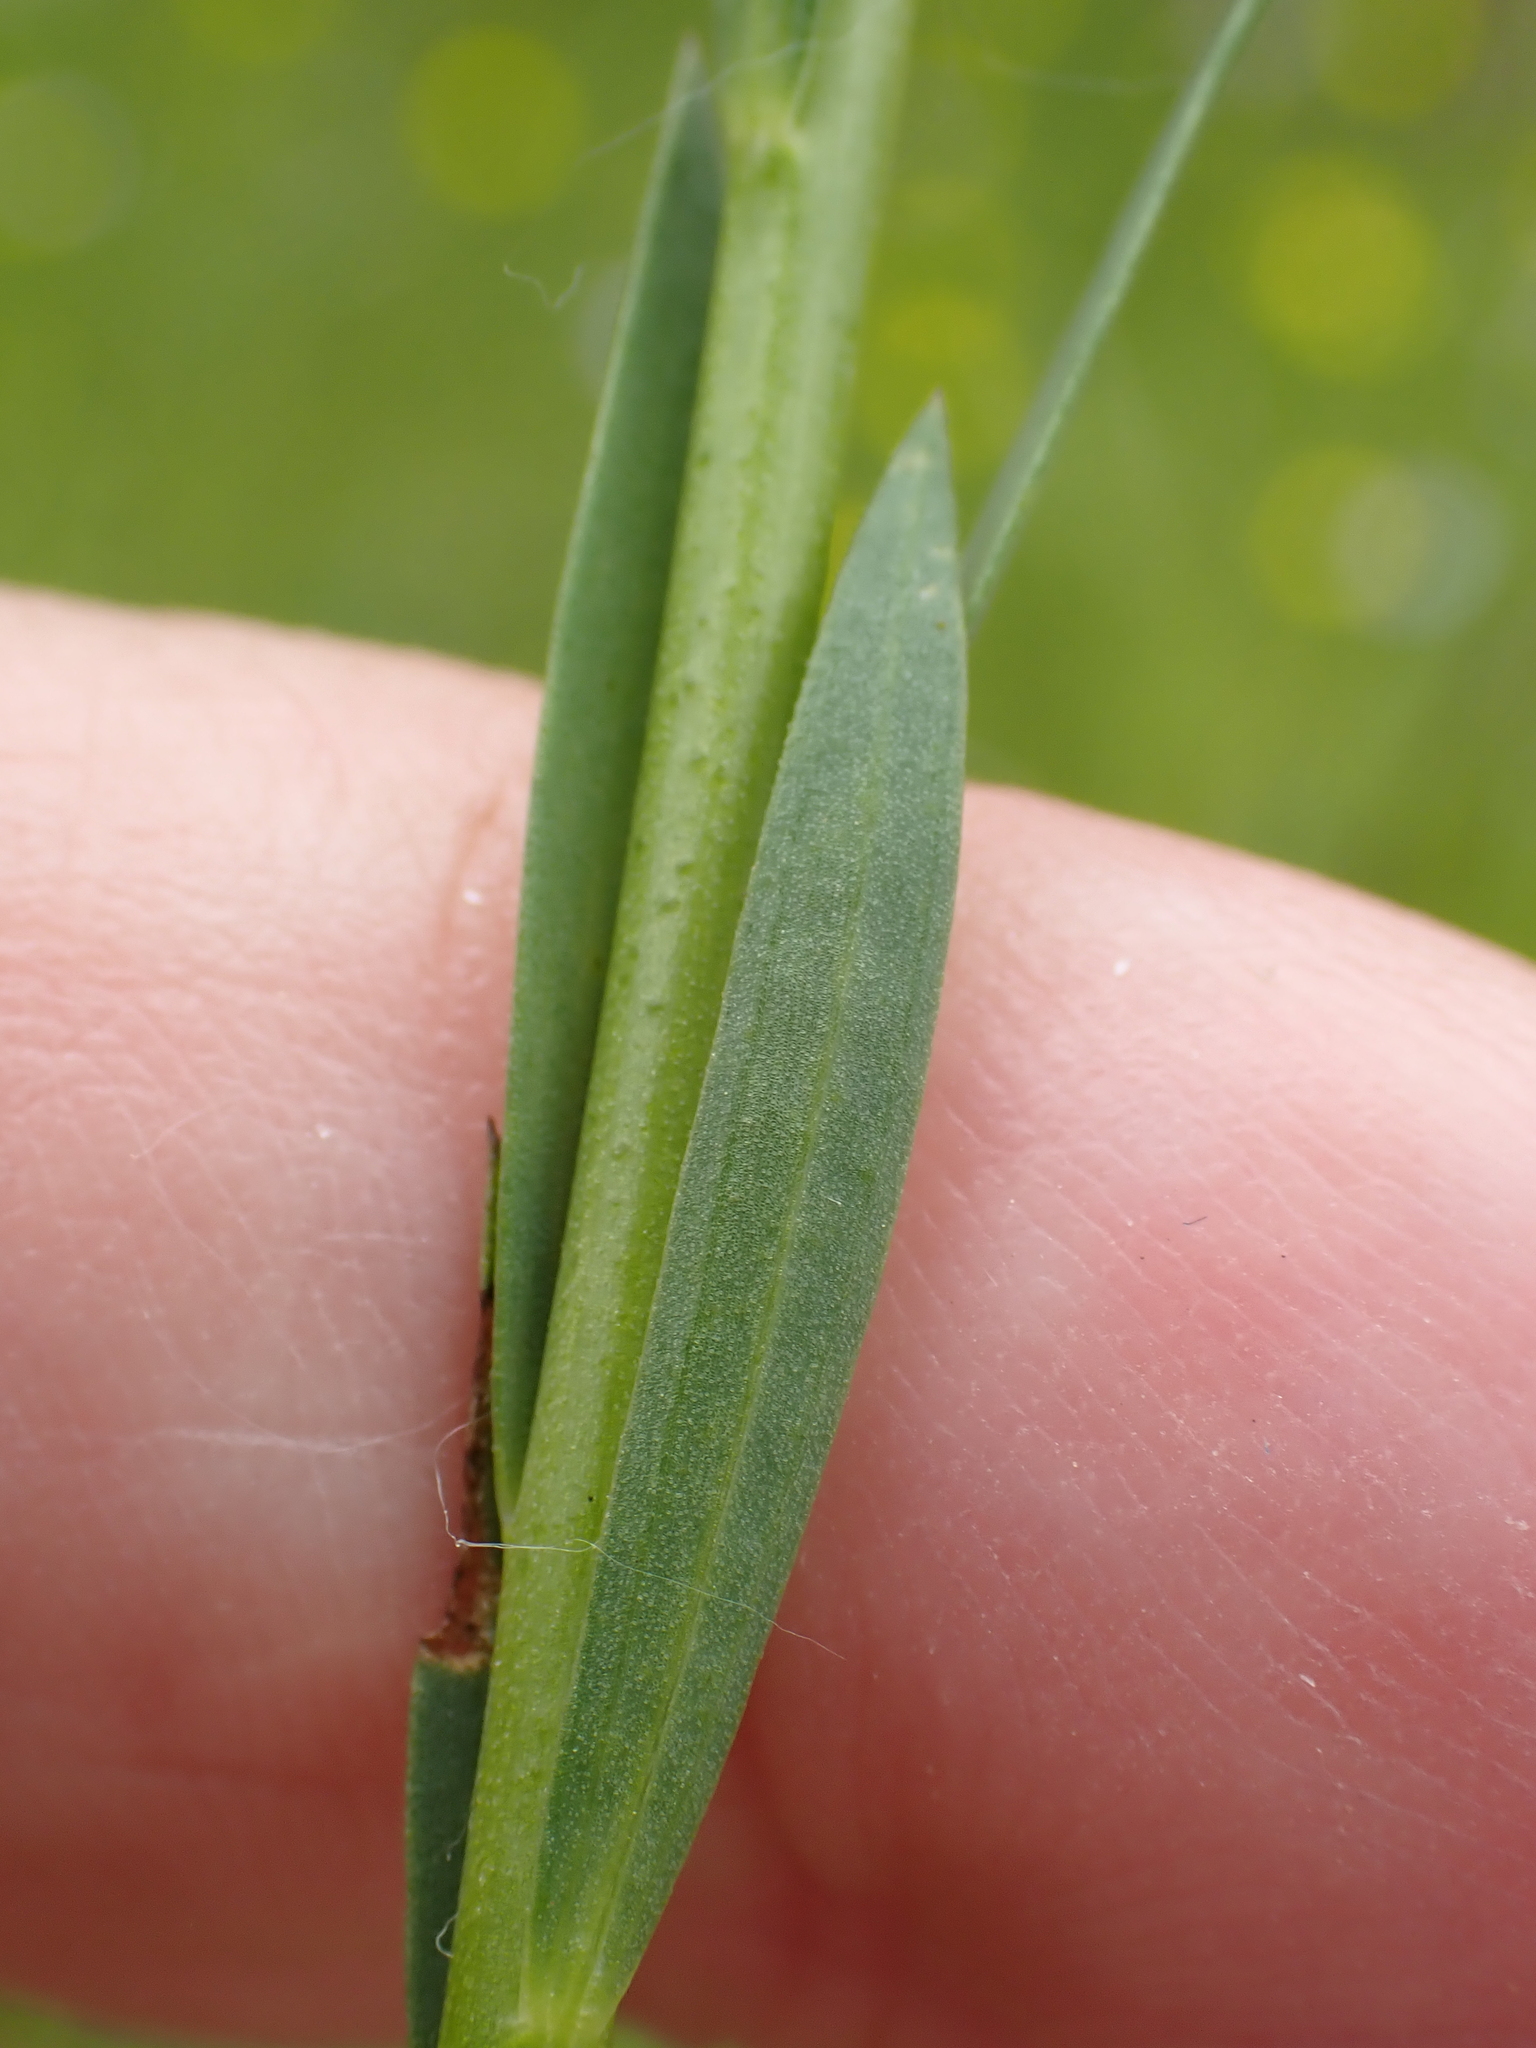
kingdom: Plantae
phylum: Tracheophyta
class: Magnoliopsida
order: Malpighiales
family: Linaceae
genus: Linum
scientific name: Linum bienne
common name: Pale flax
